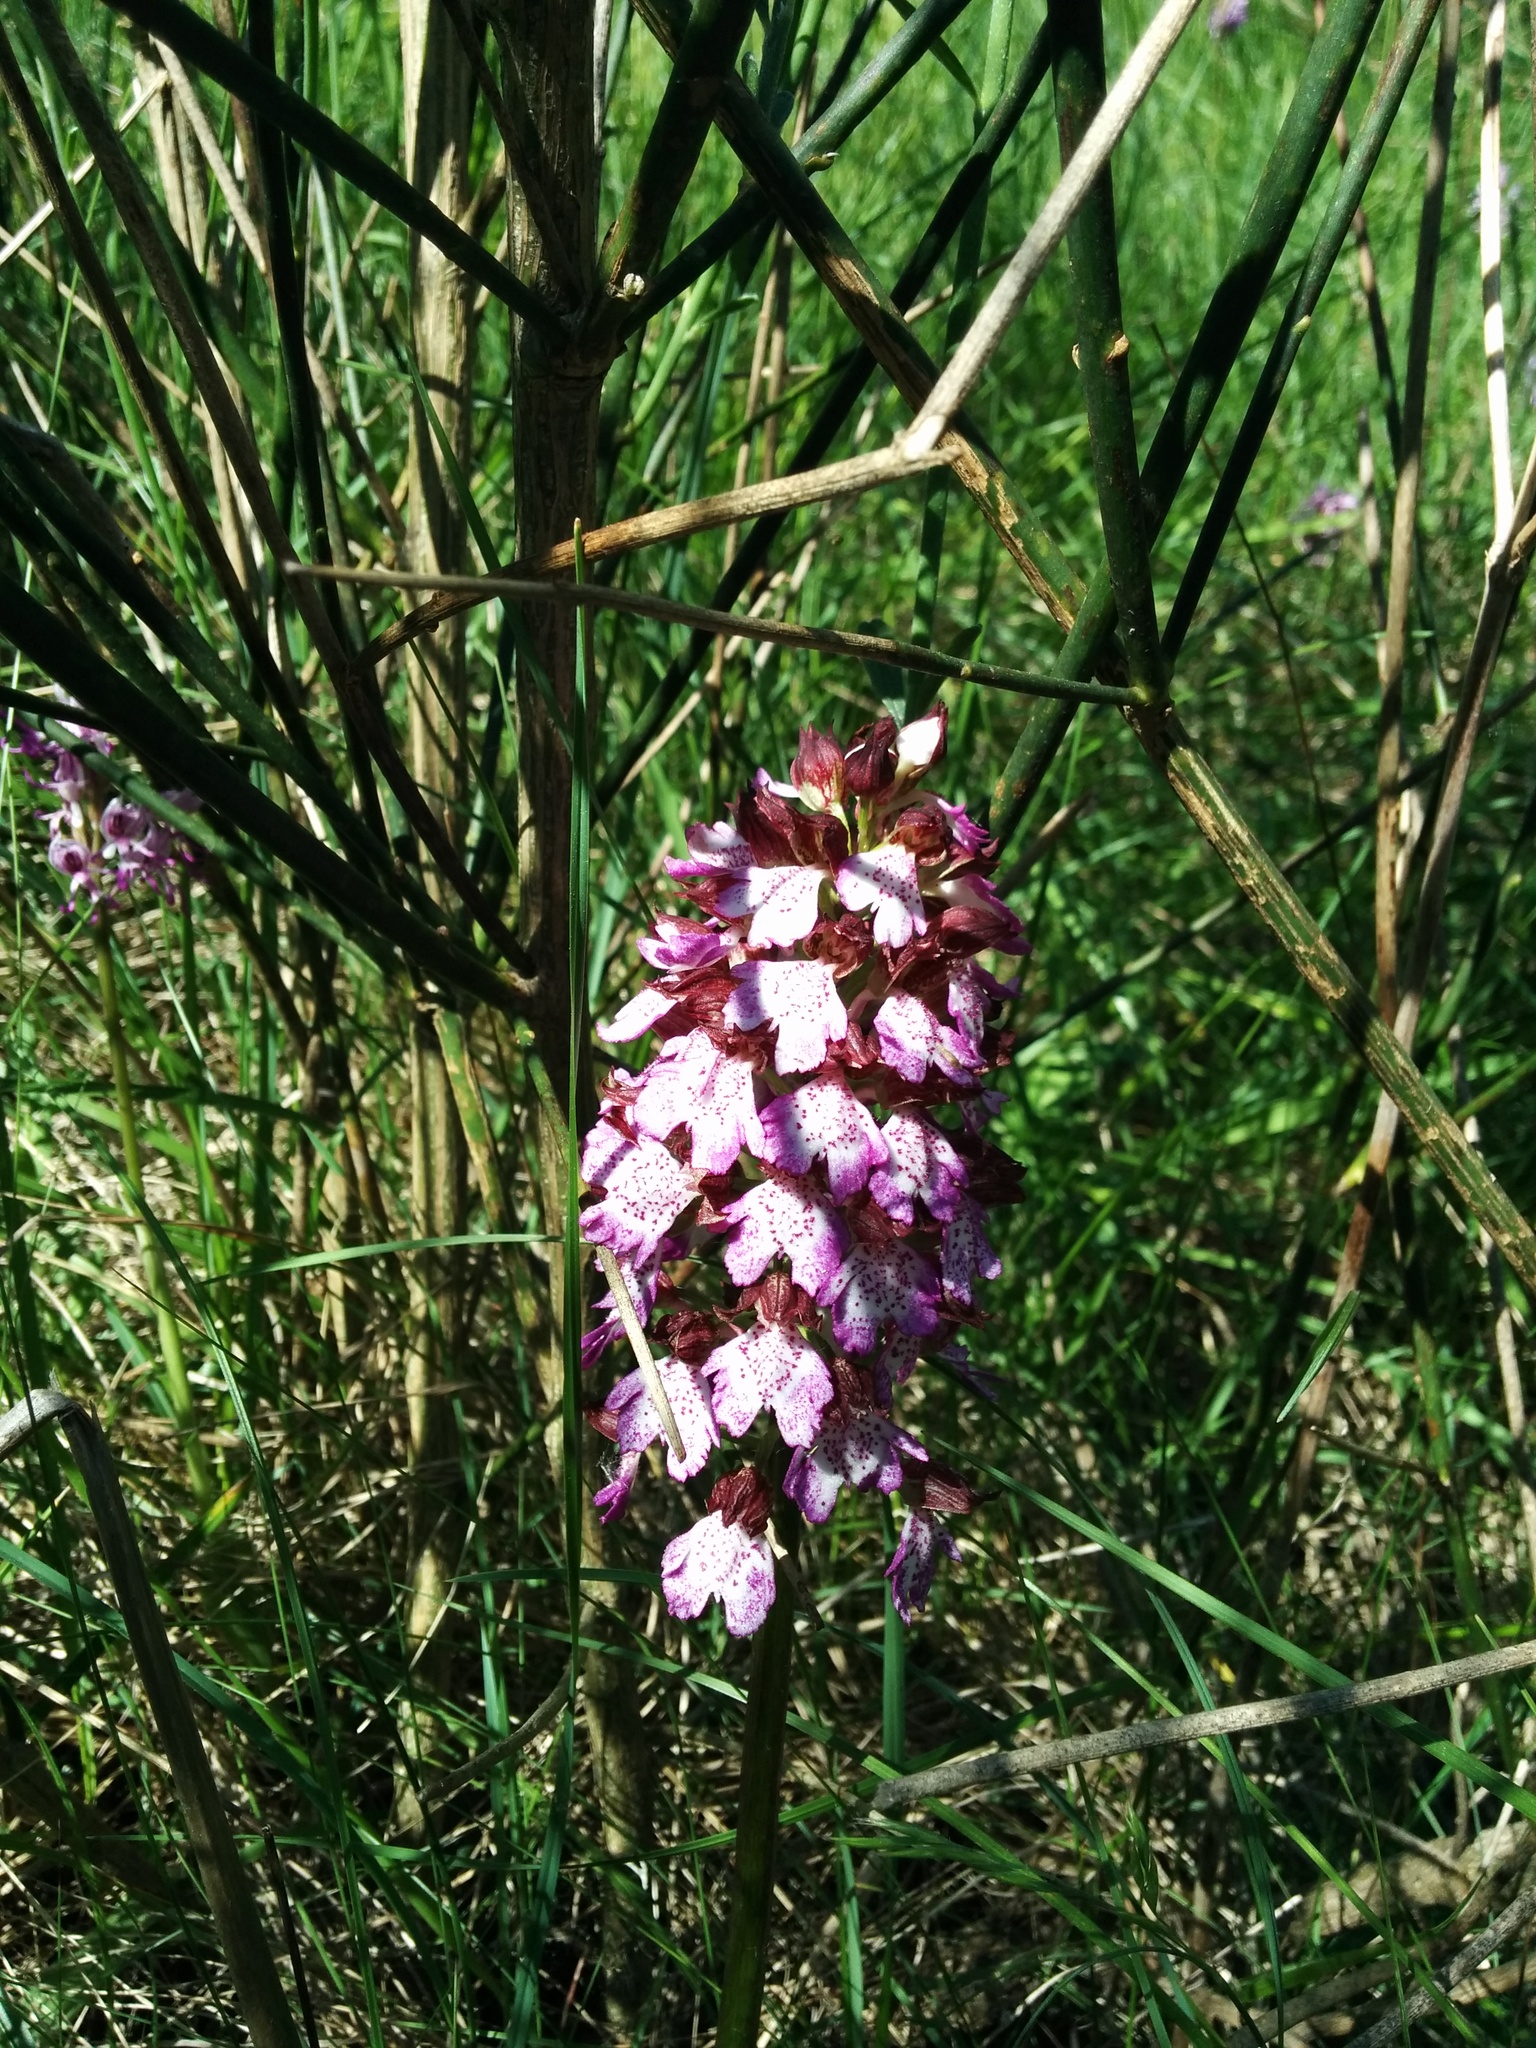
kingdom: Plantae
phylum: Tracheophyta
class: Liliopsida
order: Asparagales
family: Orchidaceae
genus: Orchis
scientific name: Orchis purpurea
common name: Lady orchid
